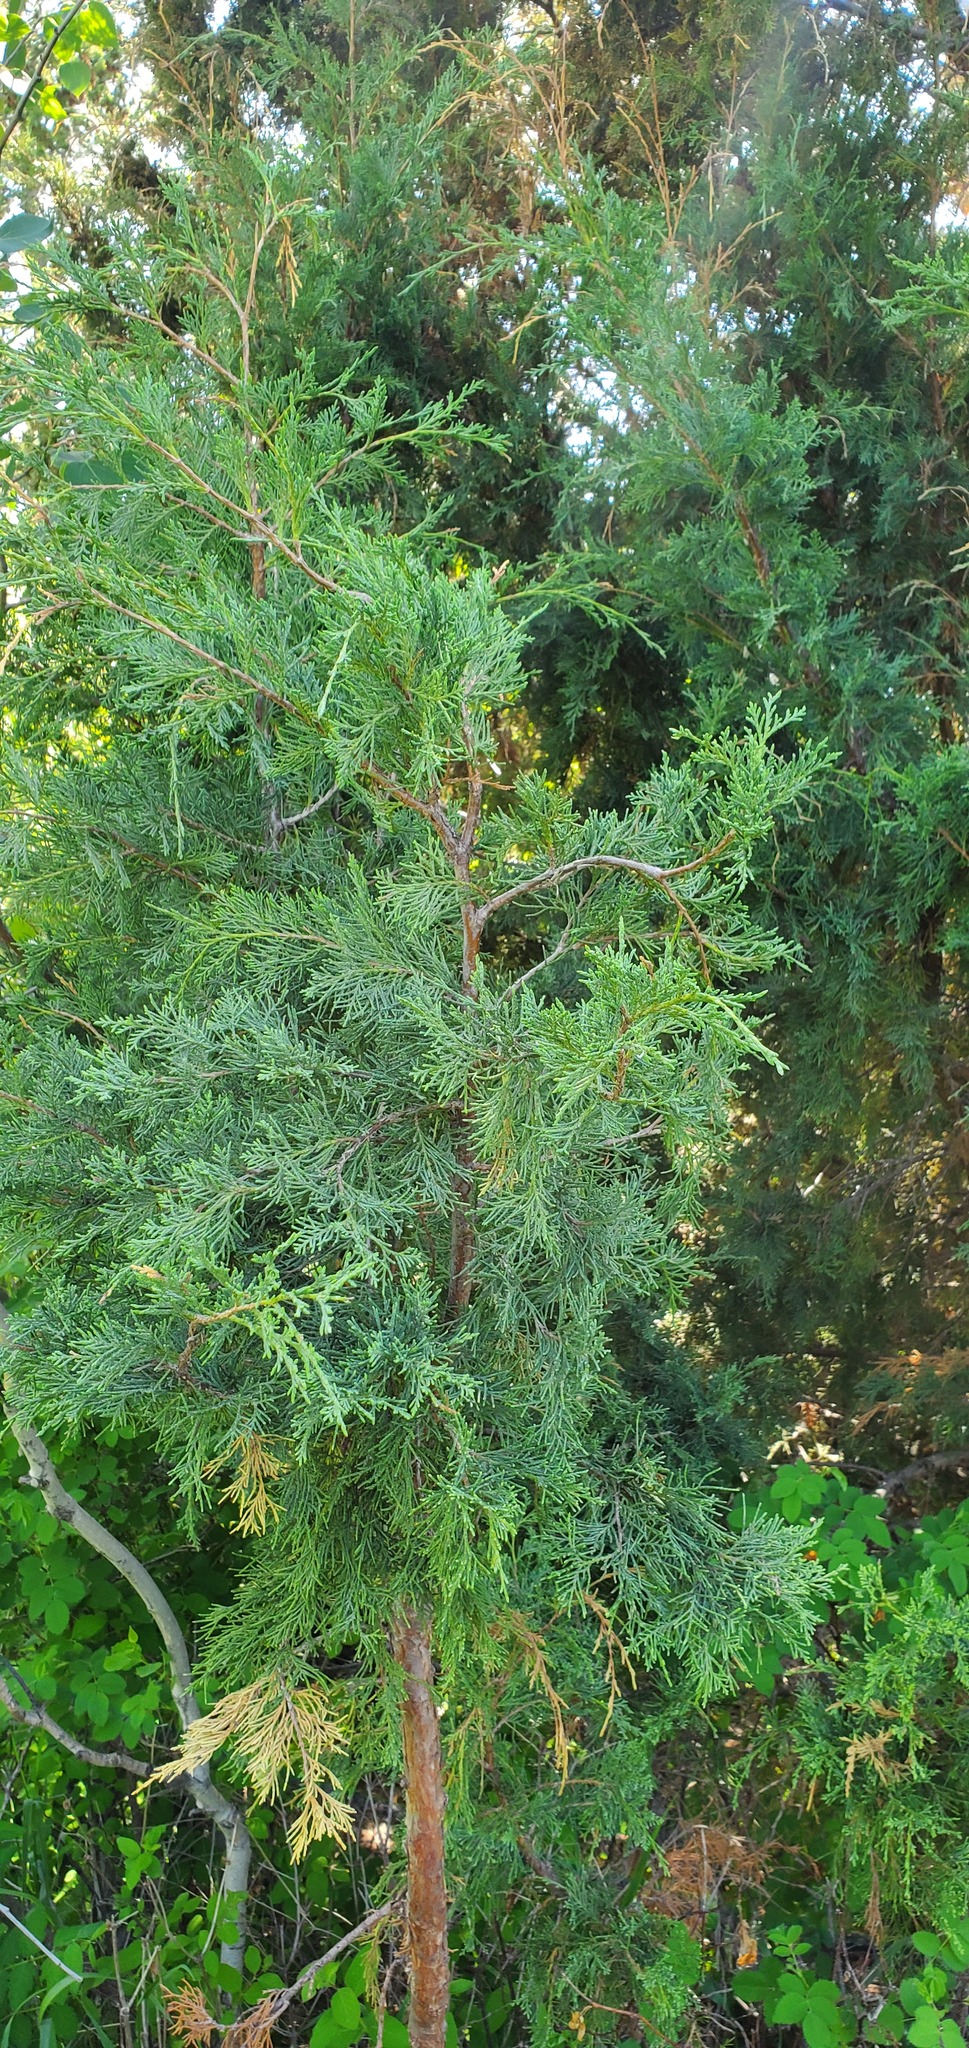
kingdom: Plantae
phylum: Tracheophyta
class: Pinopsida
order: Pinales
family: Cupressaceae
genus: Juniperus
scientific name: Juniperus scopulorum
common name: Rocky mountain juniper
